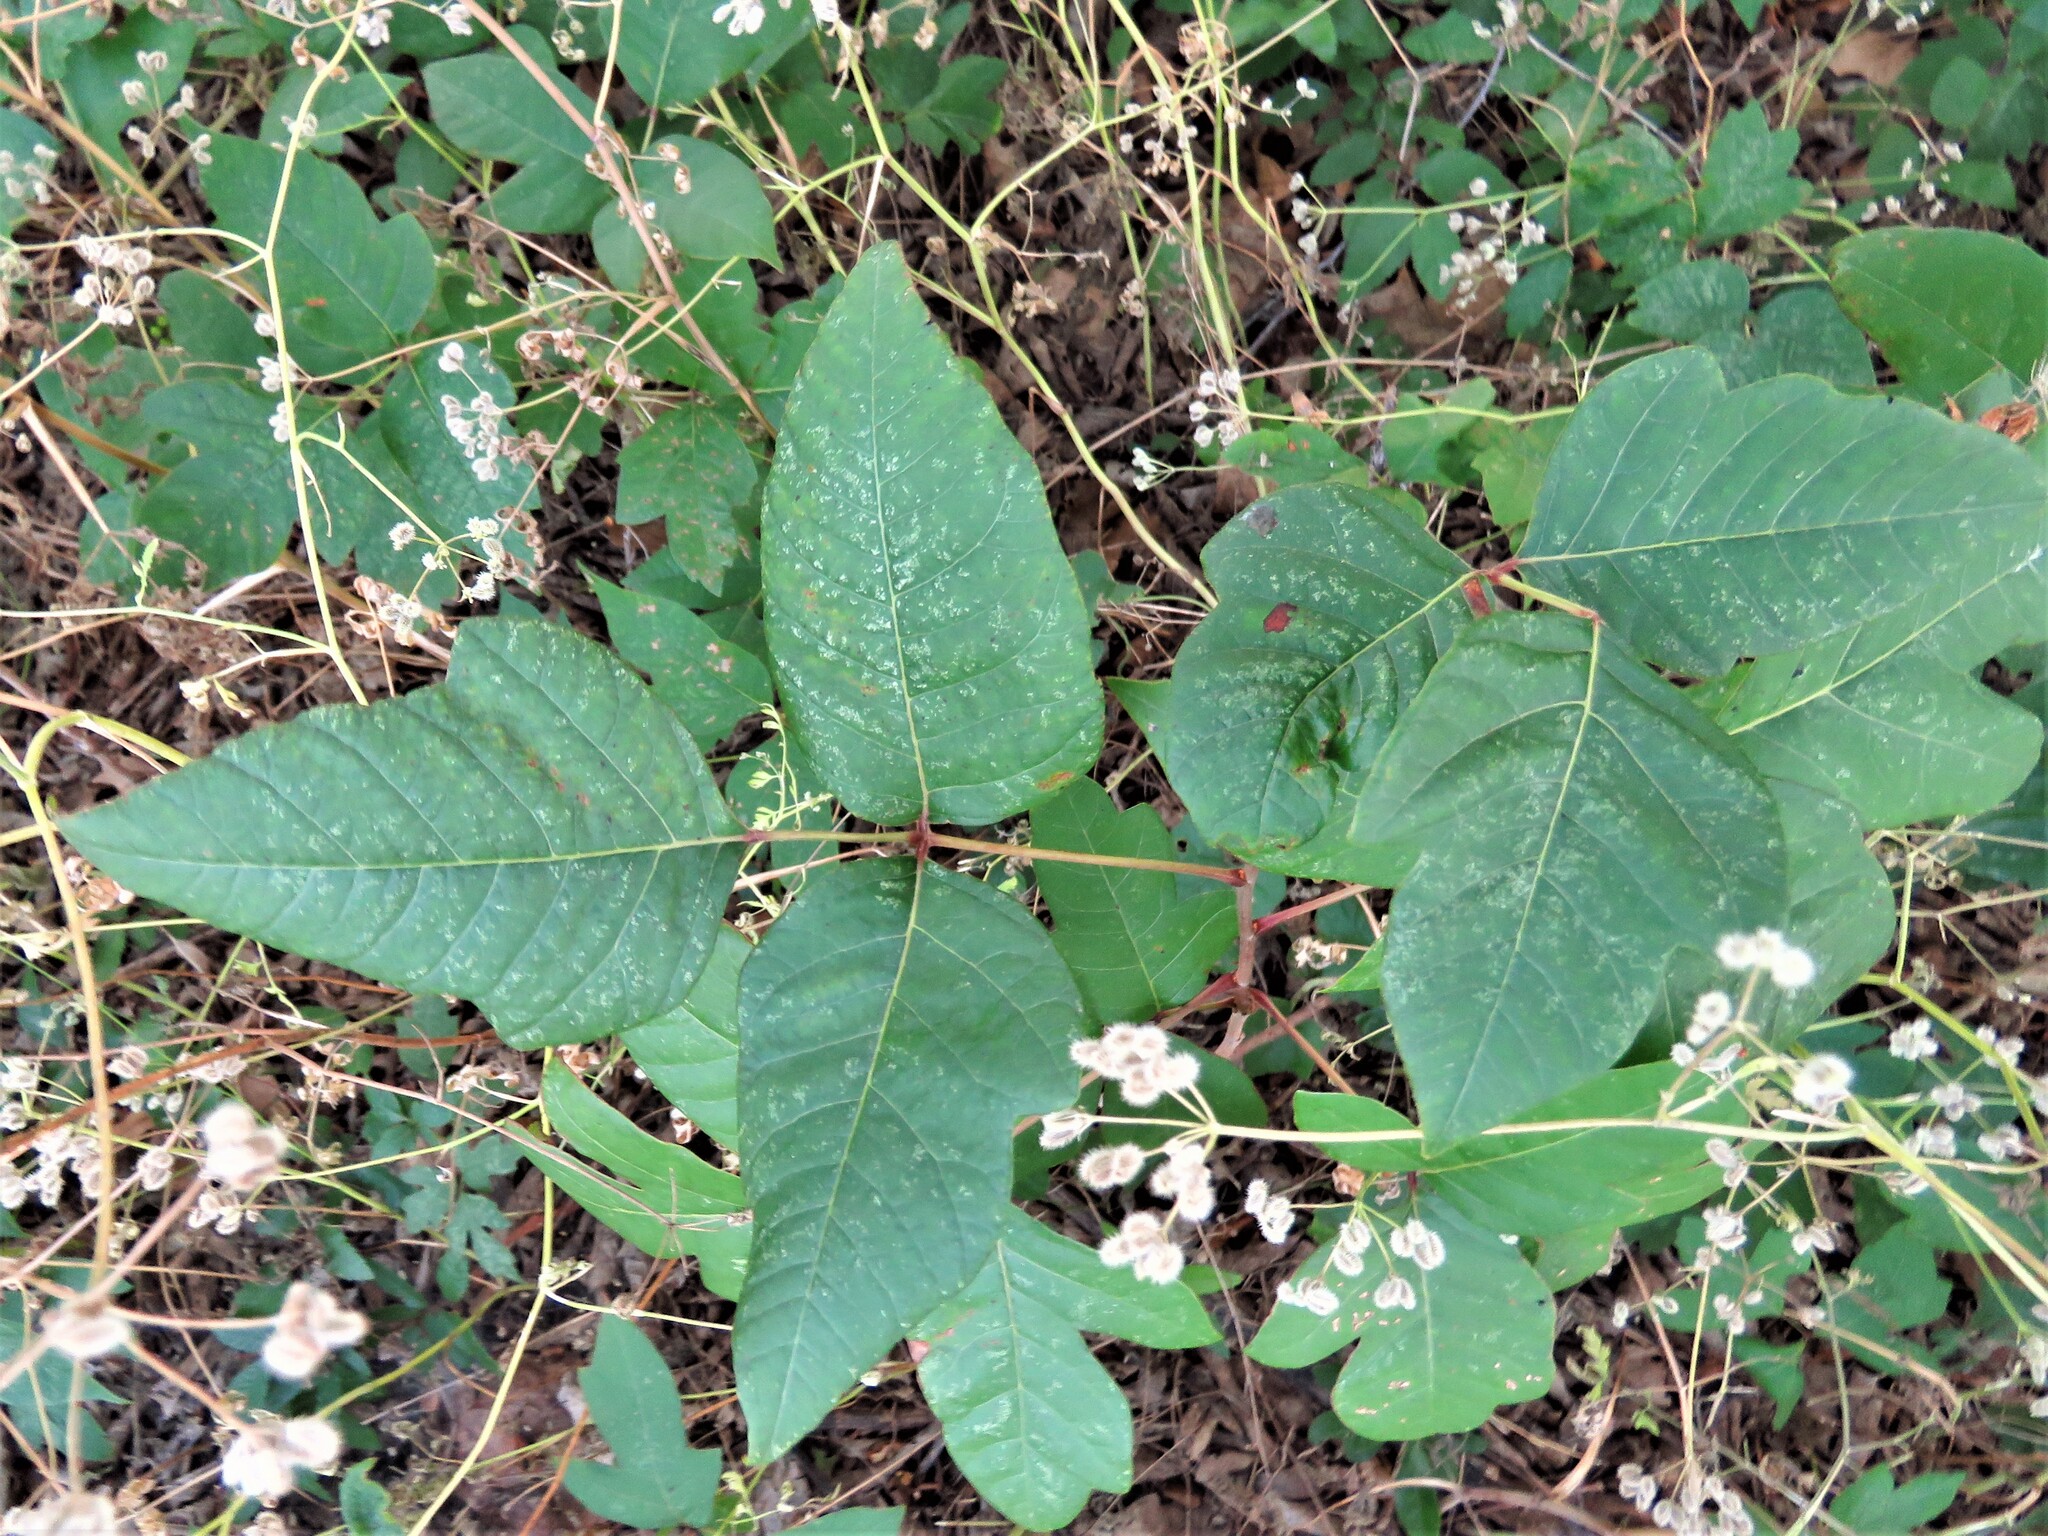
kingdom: Plantae
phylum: Tracheophyta
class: Magnoliopsida
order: Sapindales
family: Anacardiaceae
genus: Toxicodendron
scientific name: Toxicodendron radicans
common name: Poison ivy
